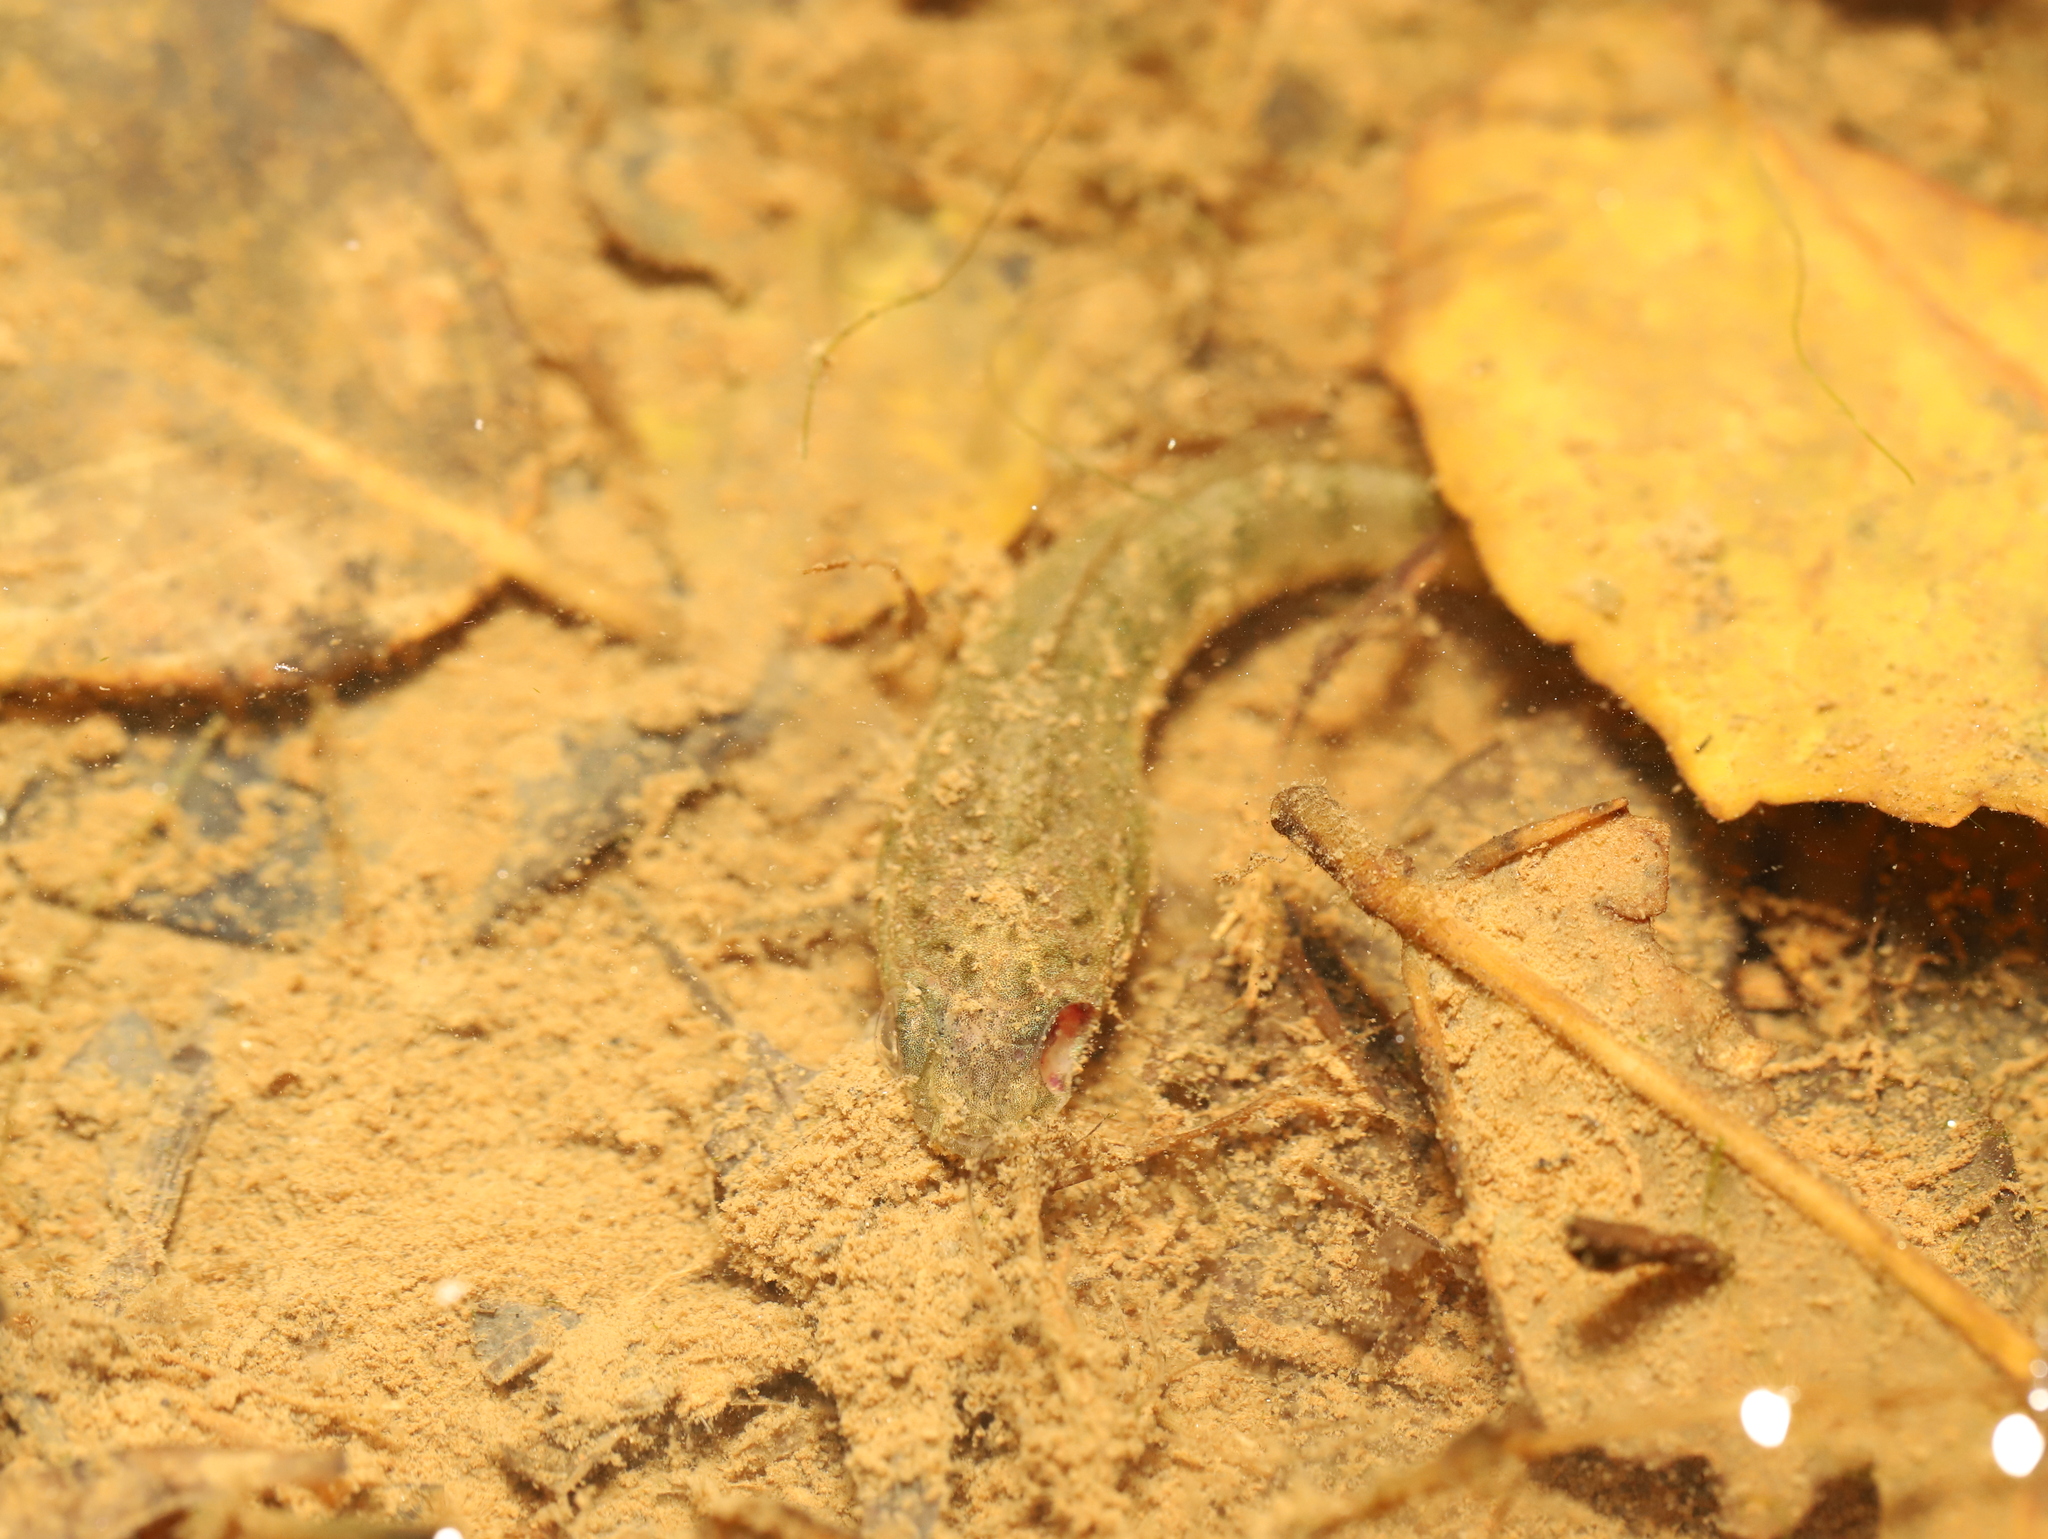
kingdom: Animalia
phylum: Chordata
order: Perciformes
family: Channidae
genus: Channa
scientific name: Channa punctata
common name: Spotted snakehead
